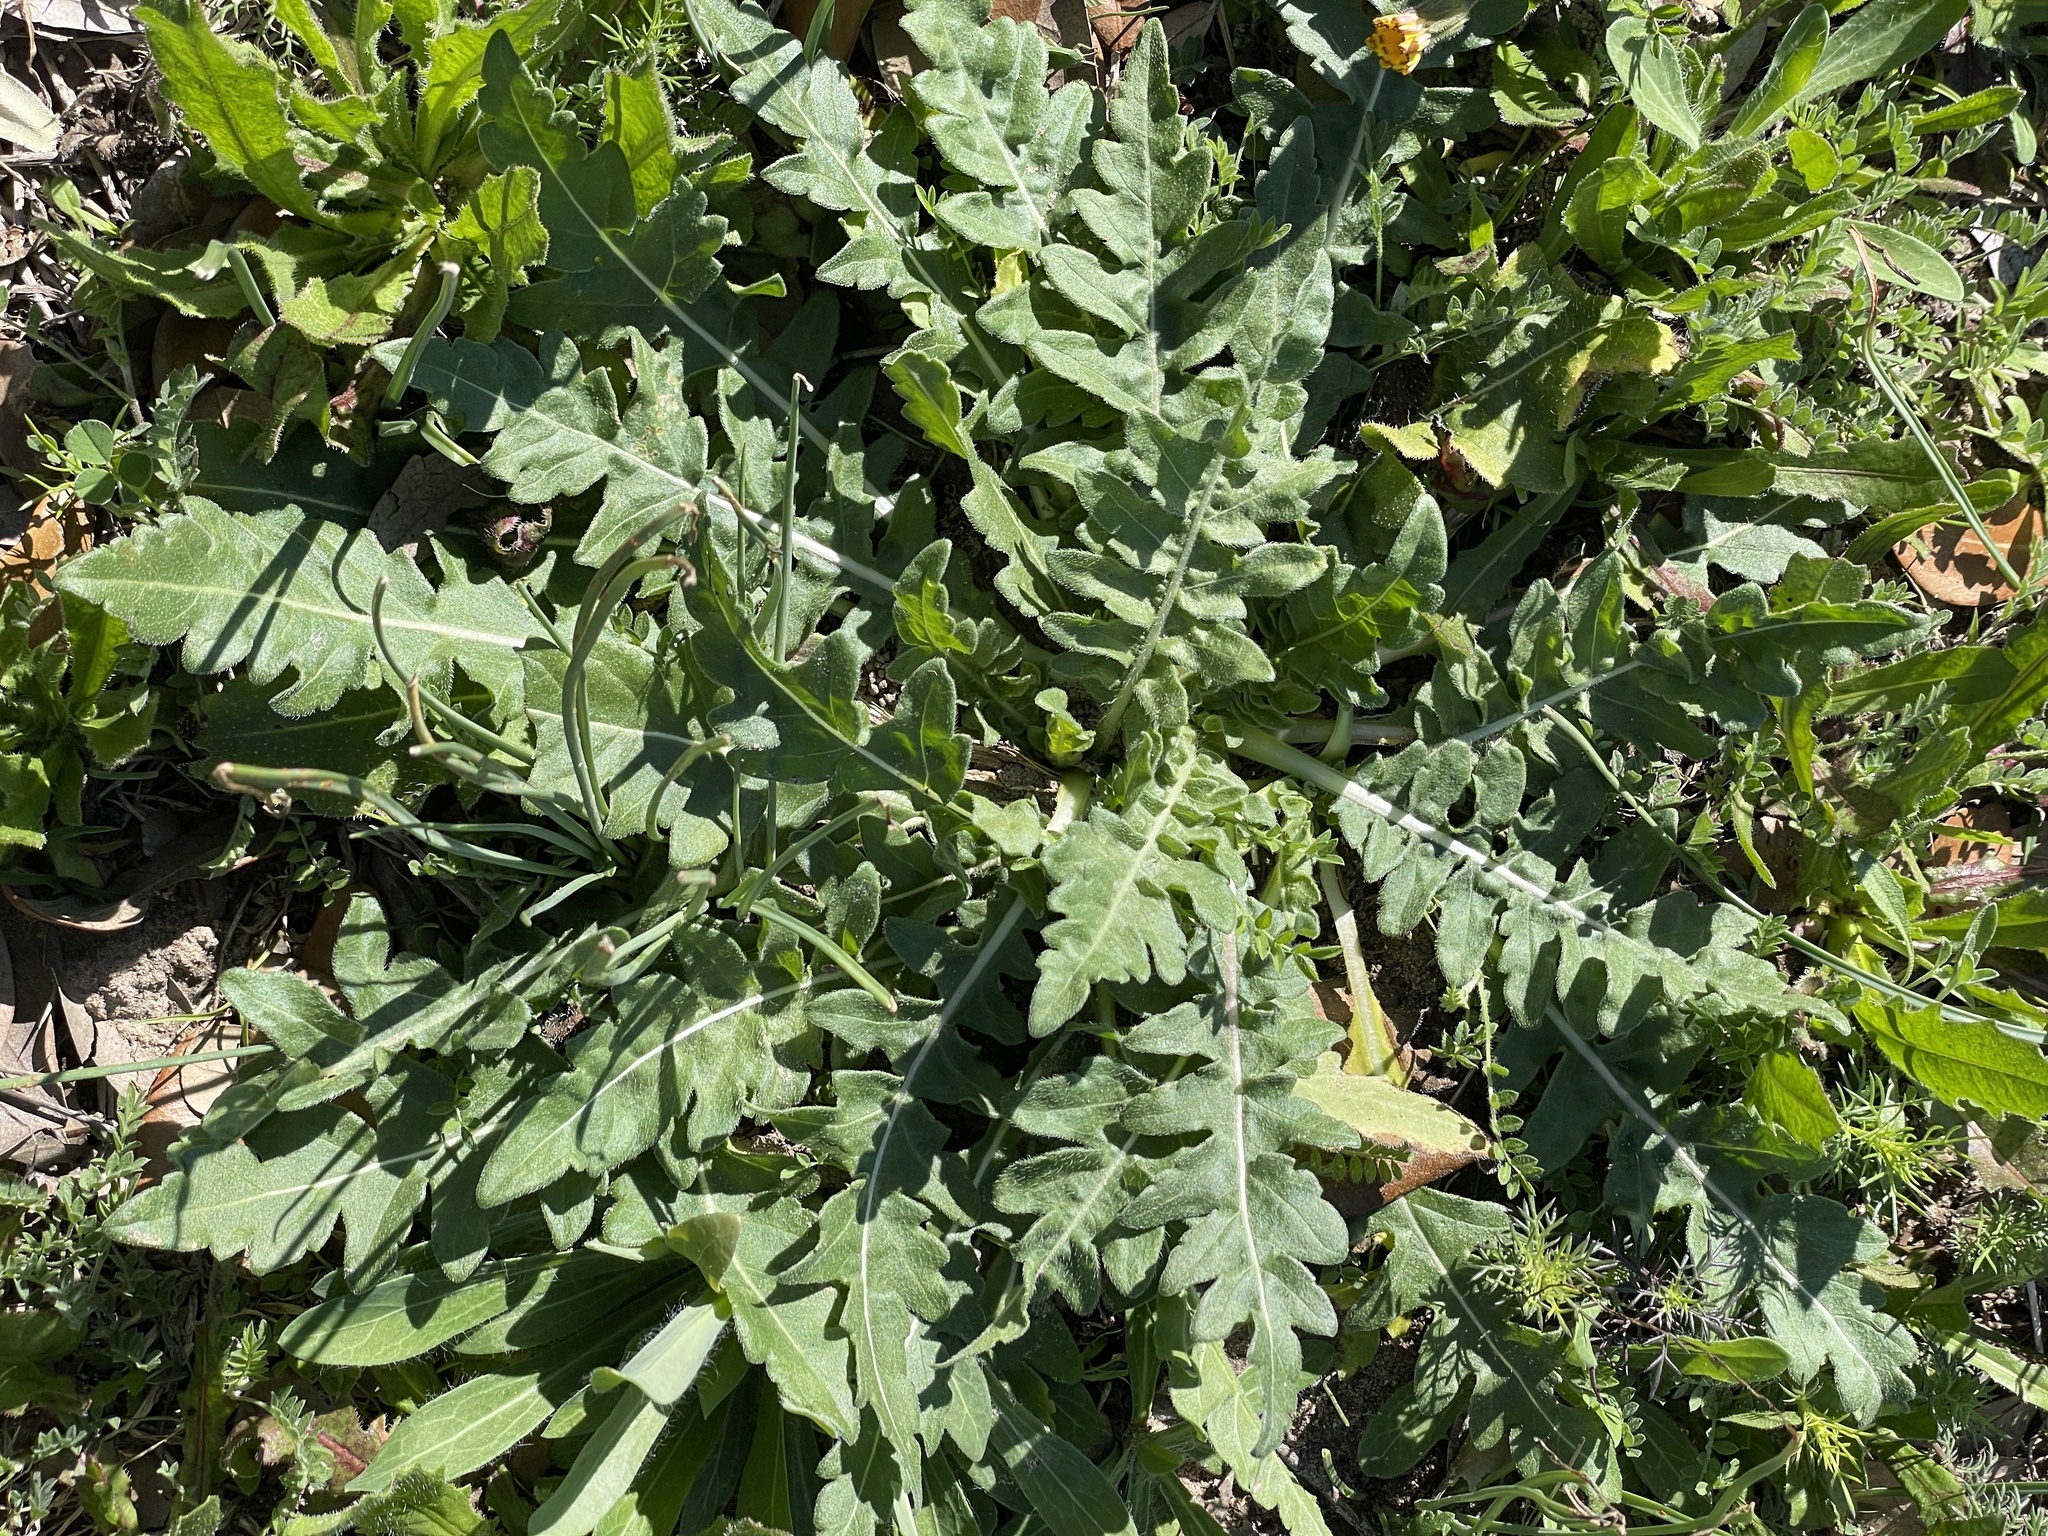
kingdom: Plantae
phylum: Tracheophyta
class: Magnoliopsida
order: Asterales
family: Asteraceae
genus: Engelmannia
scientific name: Engelmannia peristenia
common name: Engelmann's daisy
